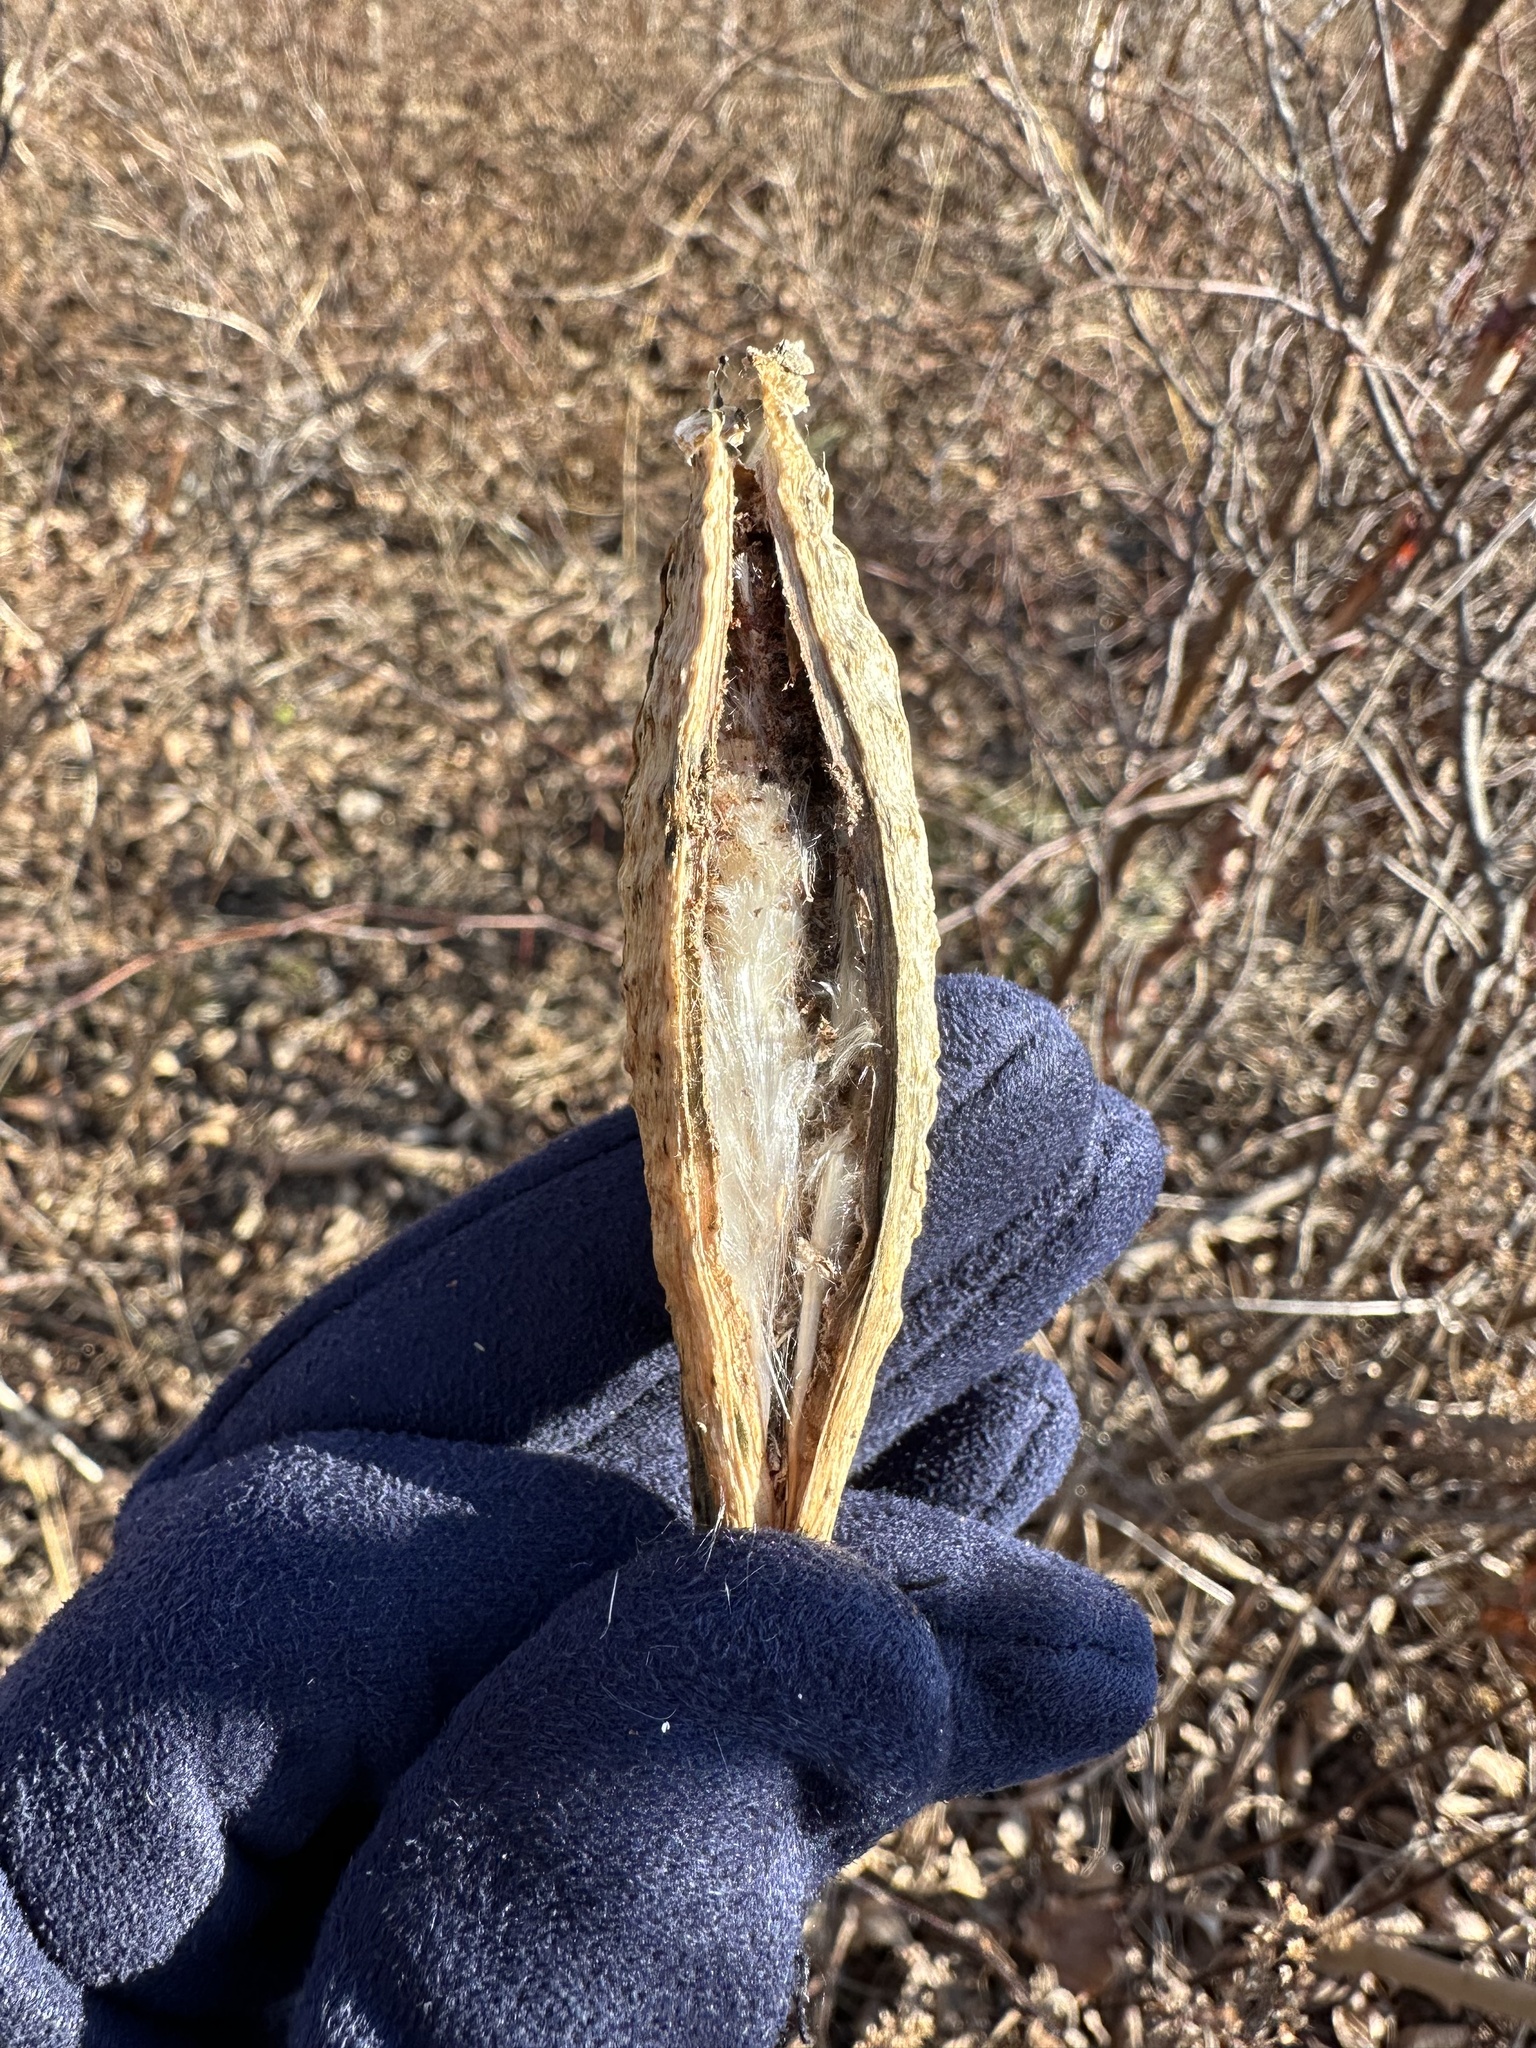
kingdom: Plantae
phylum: Tracheophyta
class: Magnoliopsida
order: Gentianales
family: Apocynaceae
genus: Cynanchum
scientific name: Cynanchum rostellatum
